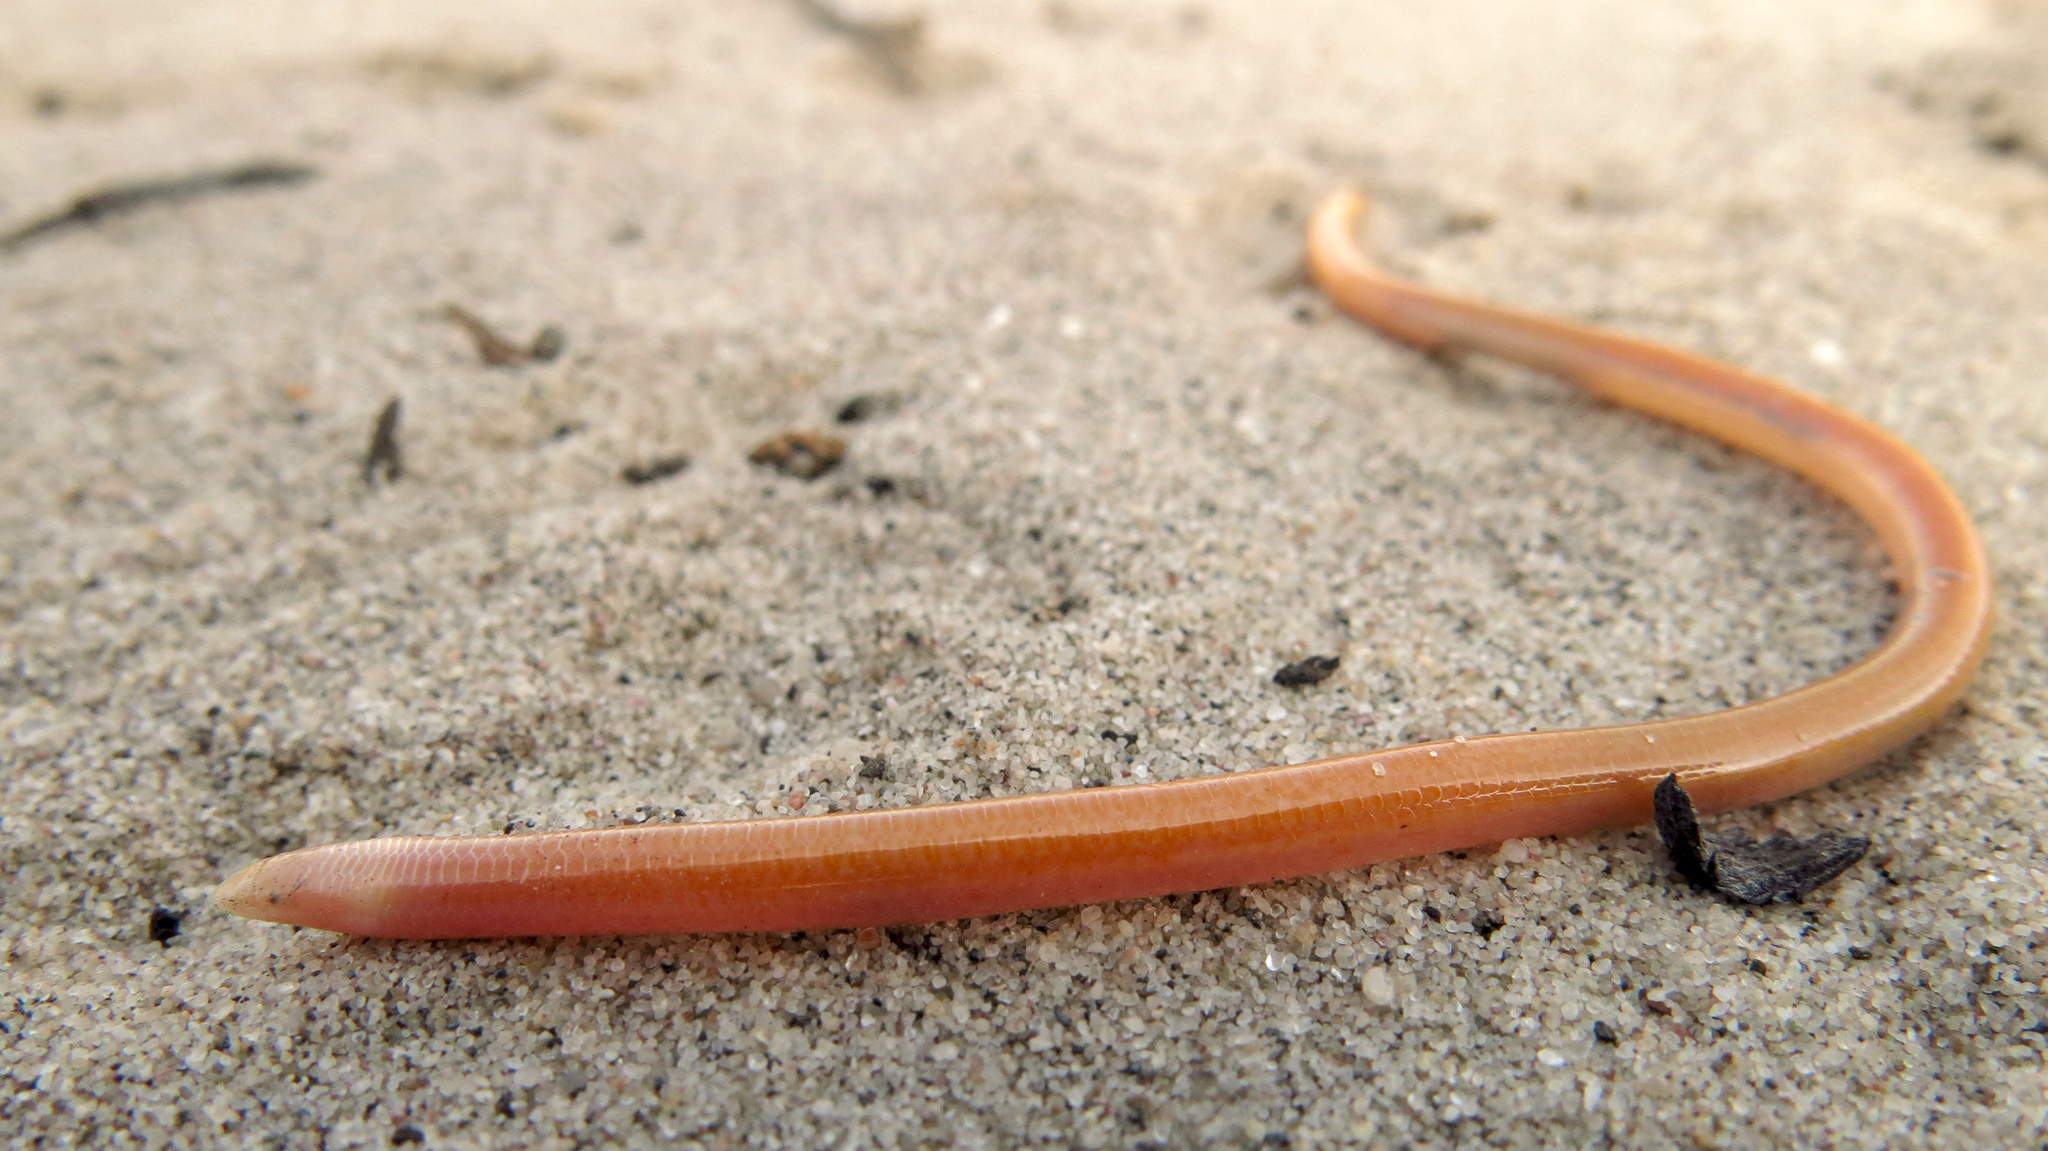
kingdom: Animalia
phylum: Chordata
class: Squamata
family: Scincidae
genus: Typhlosaurus
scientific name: Typhlosaurus lomiae
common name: Lomi's blind legless skink
